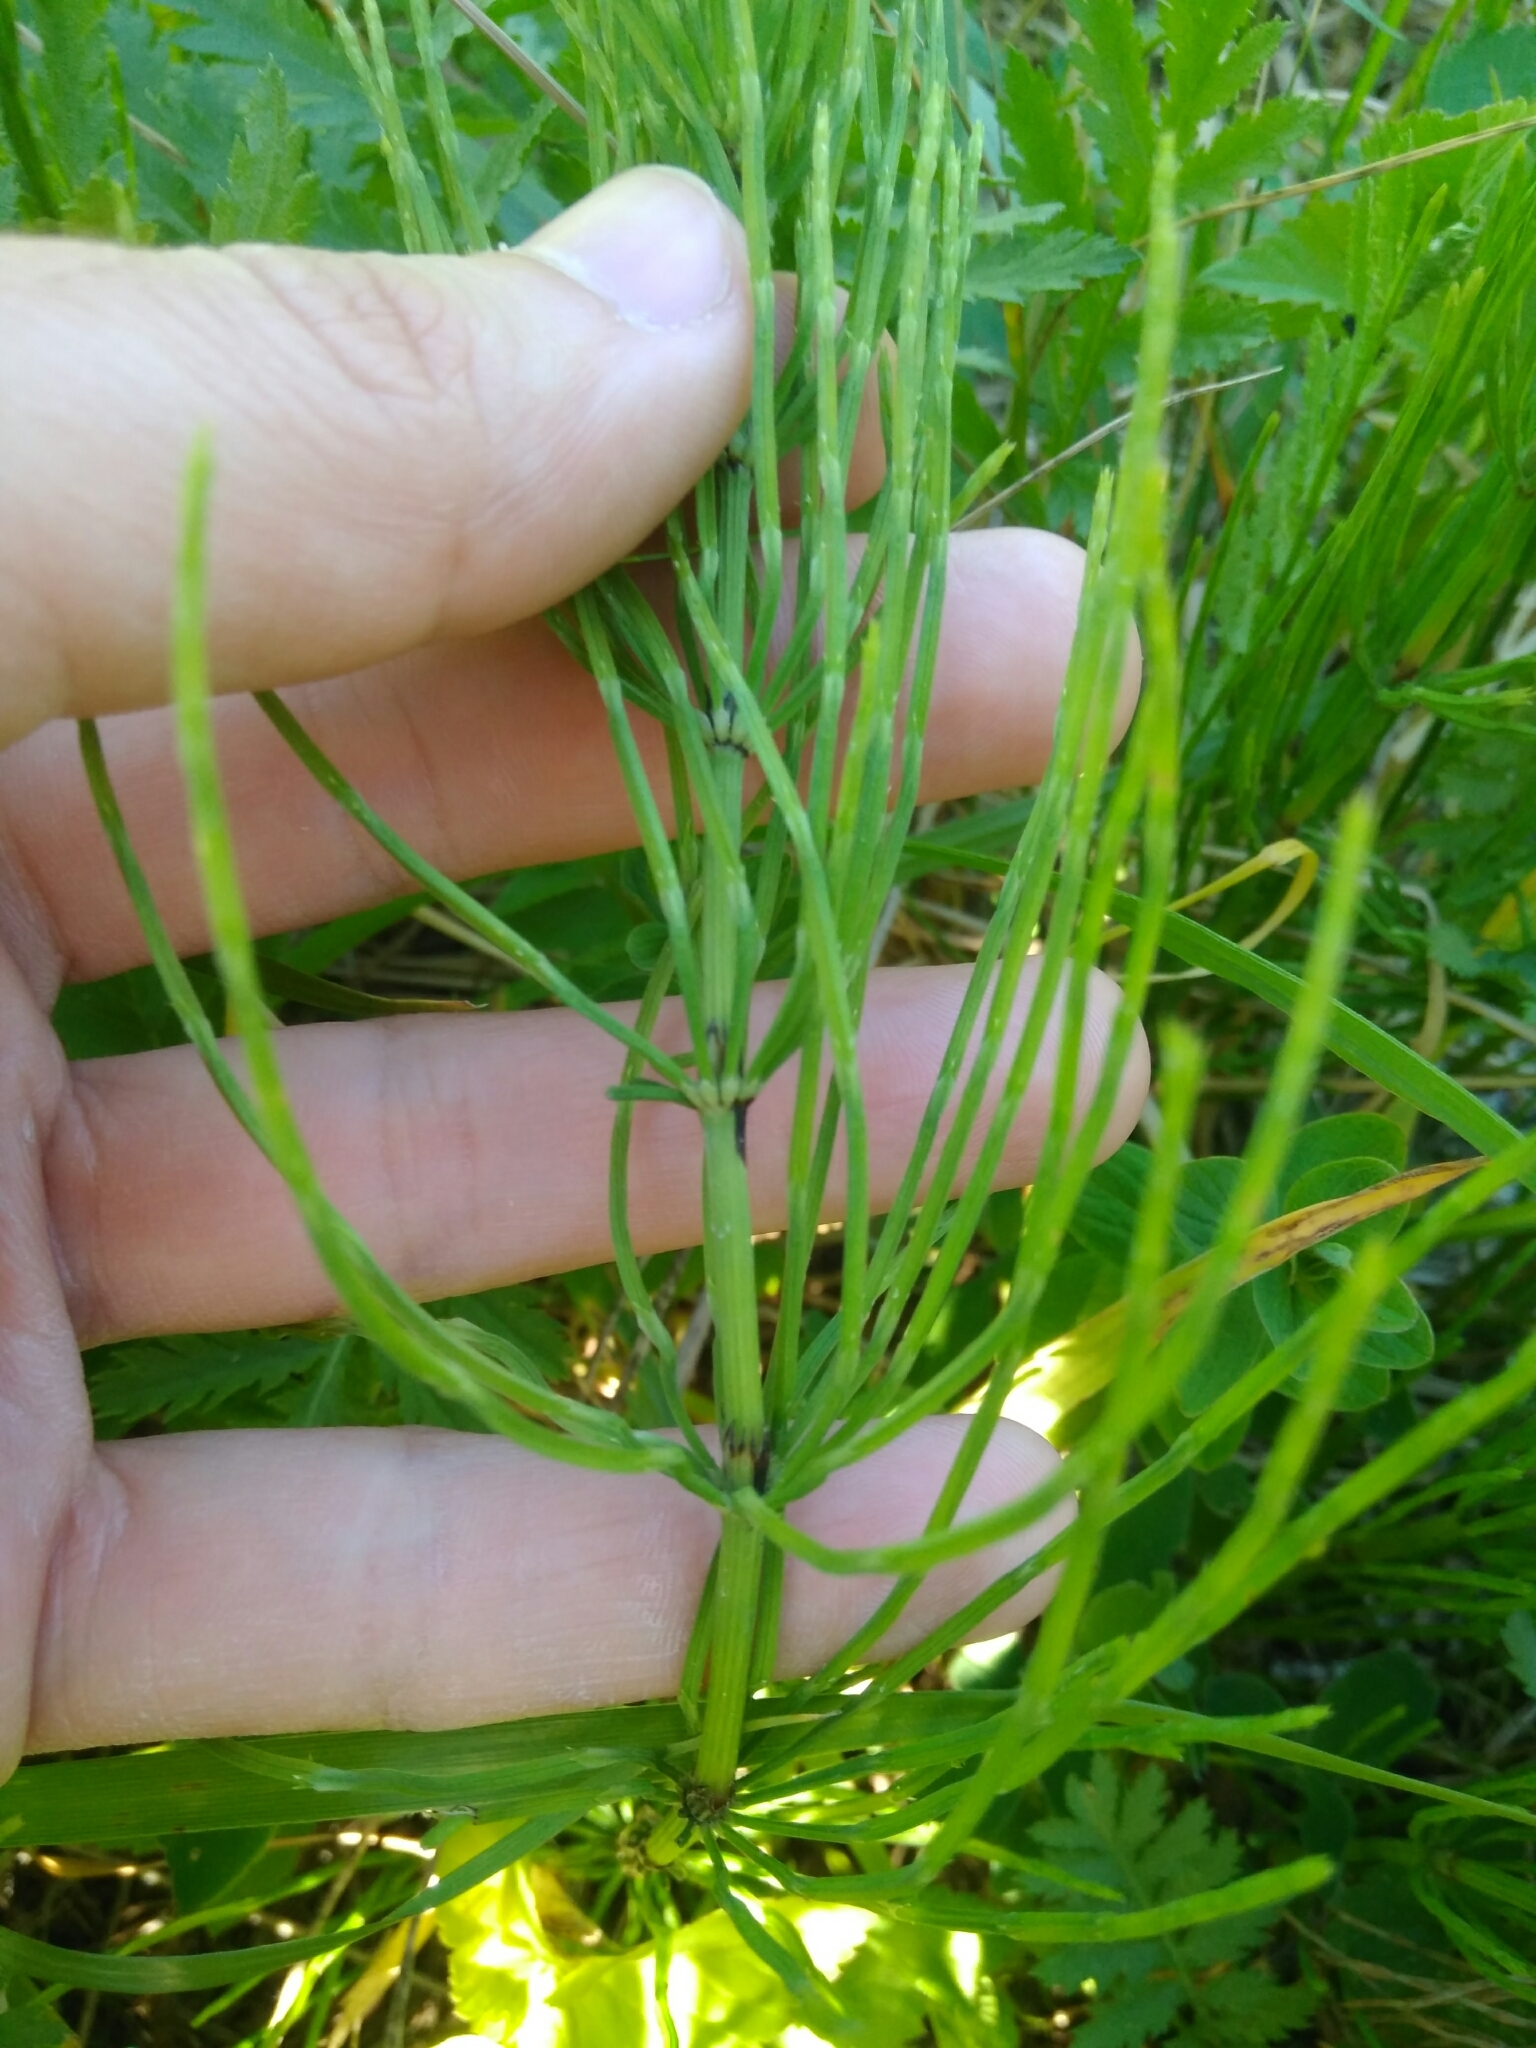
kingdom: Plantae
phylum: Tracheophyta
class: Polypodiopsida
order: Equisetales
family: Equisetaceae
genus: Equisetum
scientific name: Equisetum arvense
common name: Field horsetail
